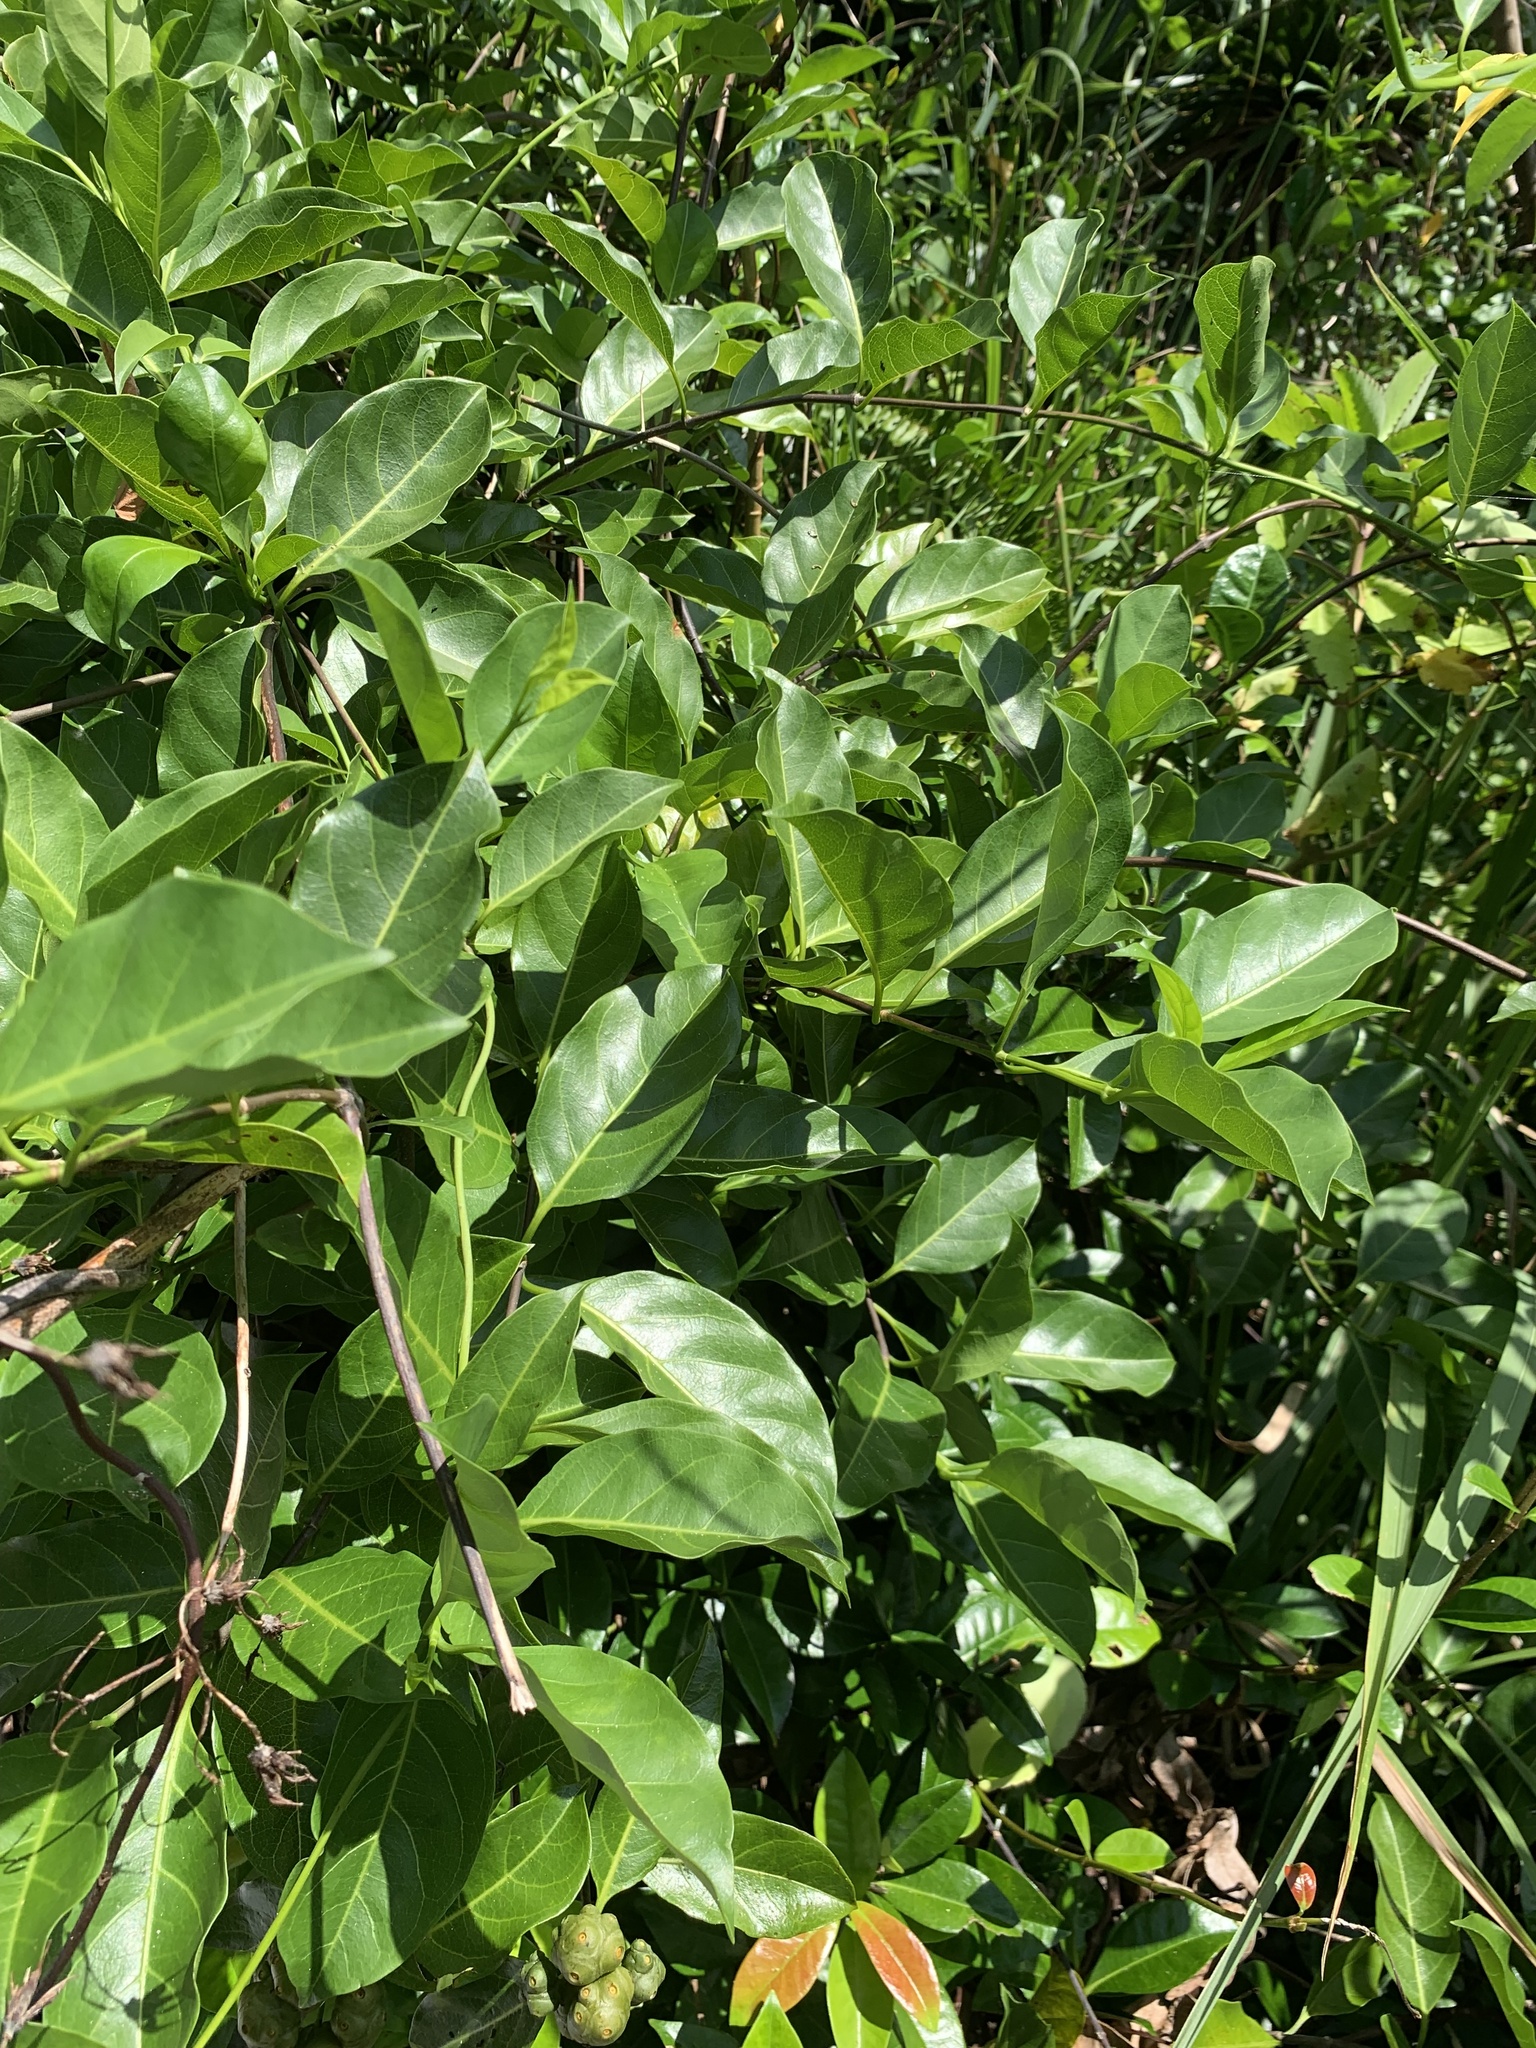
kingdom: Plantae
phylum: Tracheophyta
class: Magnoliopsida
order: Gentianales
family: Rubiaceae
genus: Gynochthodes
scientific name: Gynochthodes boninensis
